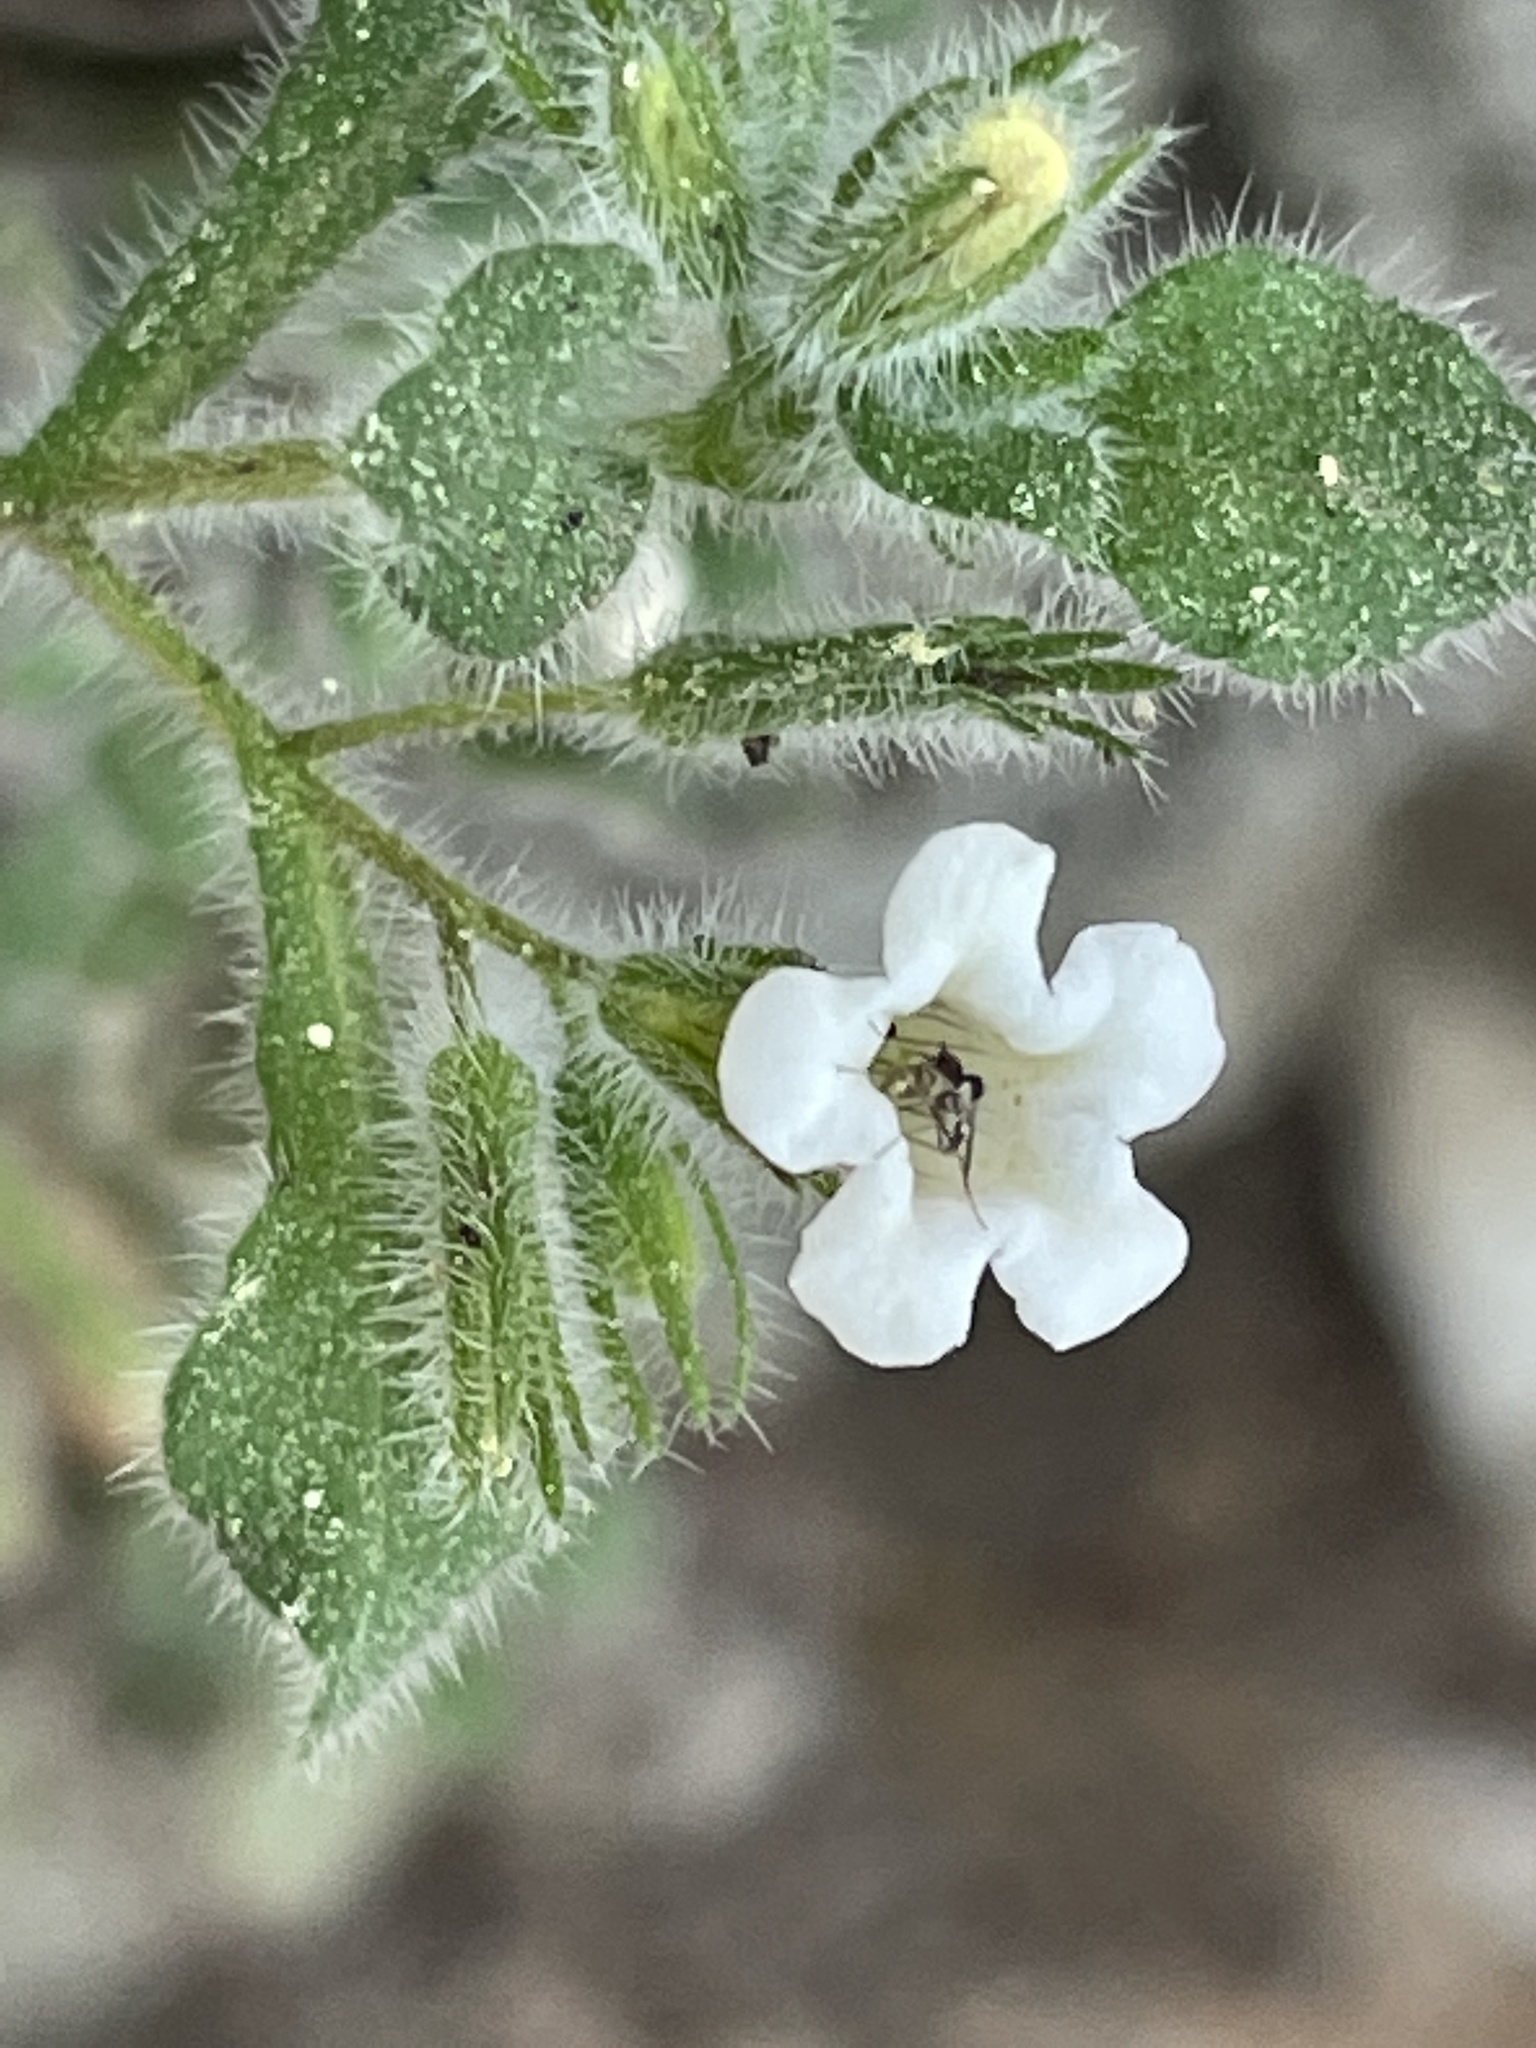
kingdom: Plantae
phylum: Tracheophyta
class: Magnoliopsida
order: Boraginales
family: Namaceae
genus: Nama
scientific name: Nama jamaicensis
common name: Jamaicanweed
